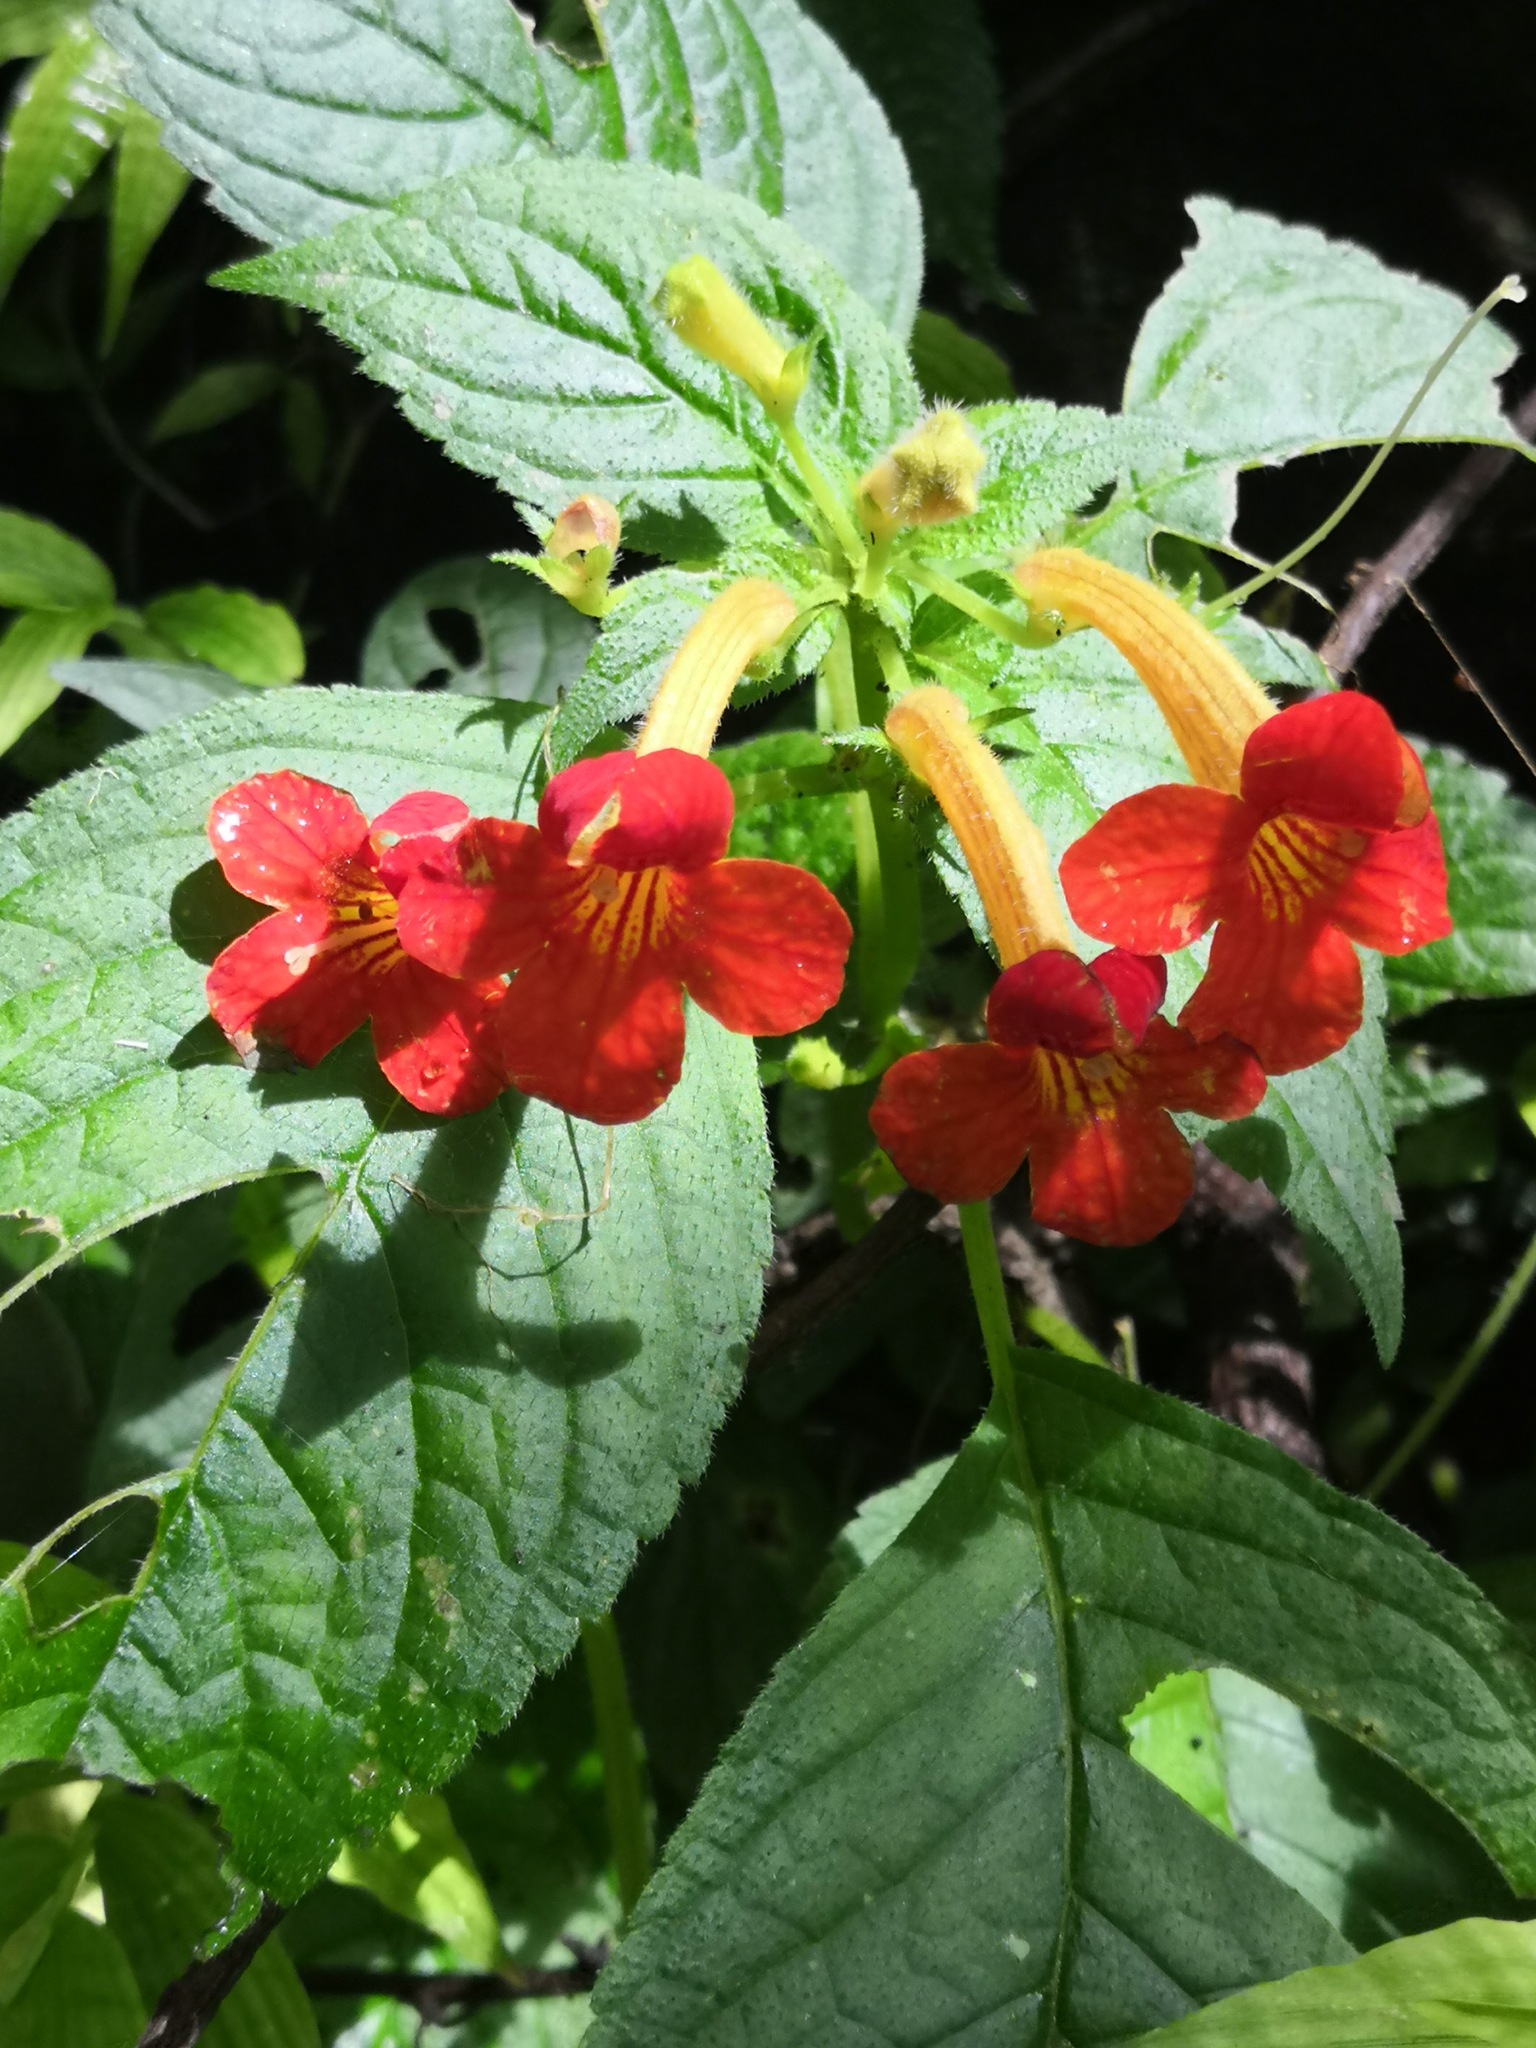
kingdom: Plantae
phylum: Tracheophyta
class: Magnoliopsida
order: Lamiales
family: Gesneriaceae
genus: Achimenes
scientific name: Achimenes antirrhina
